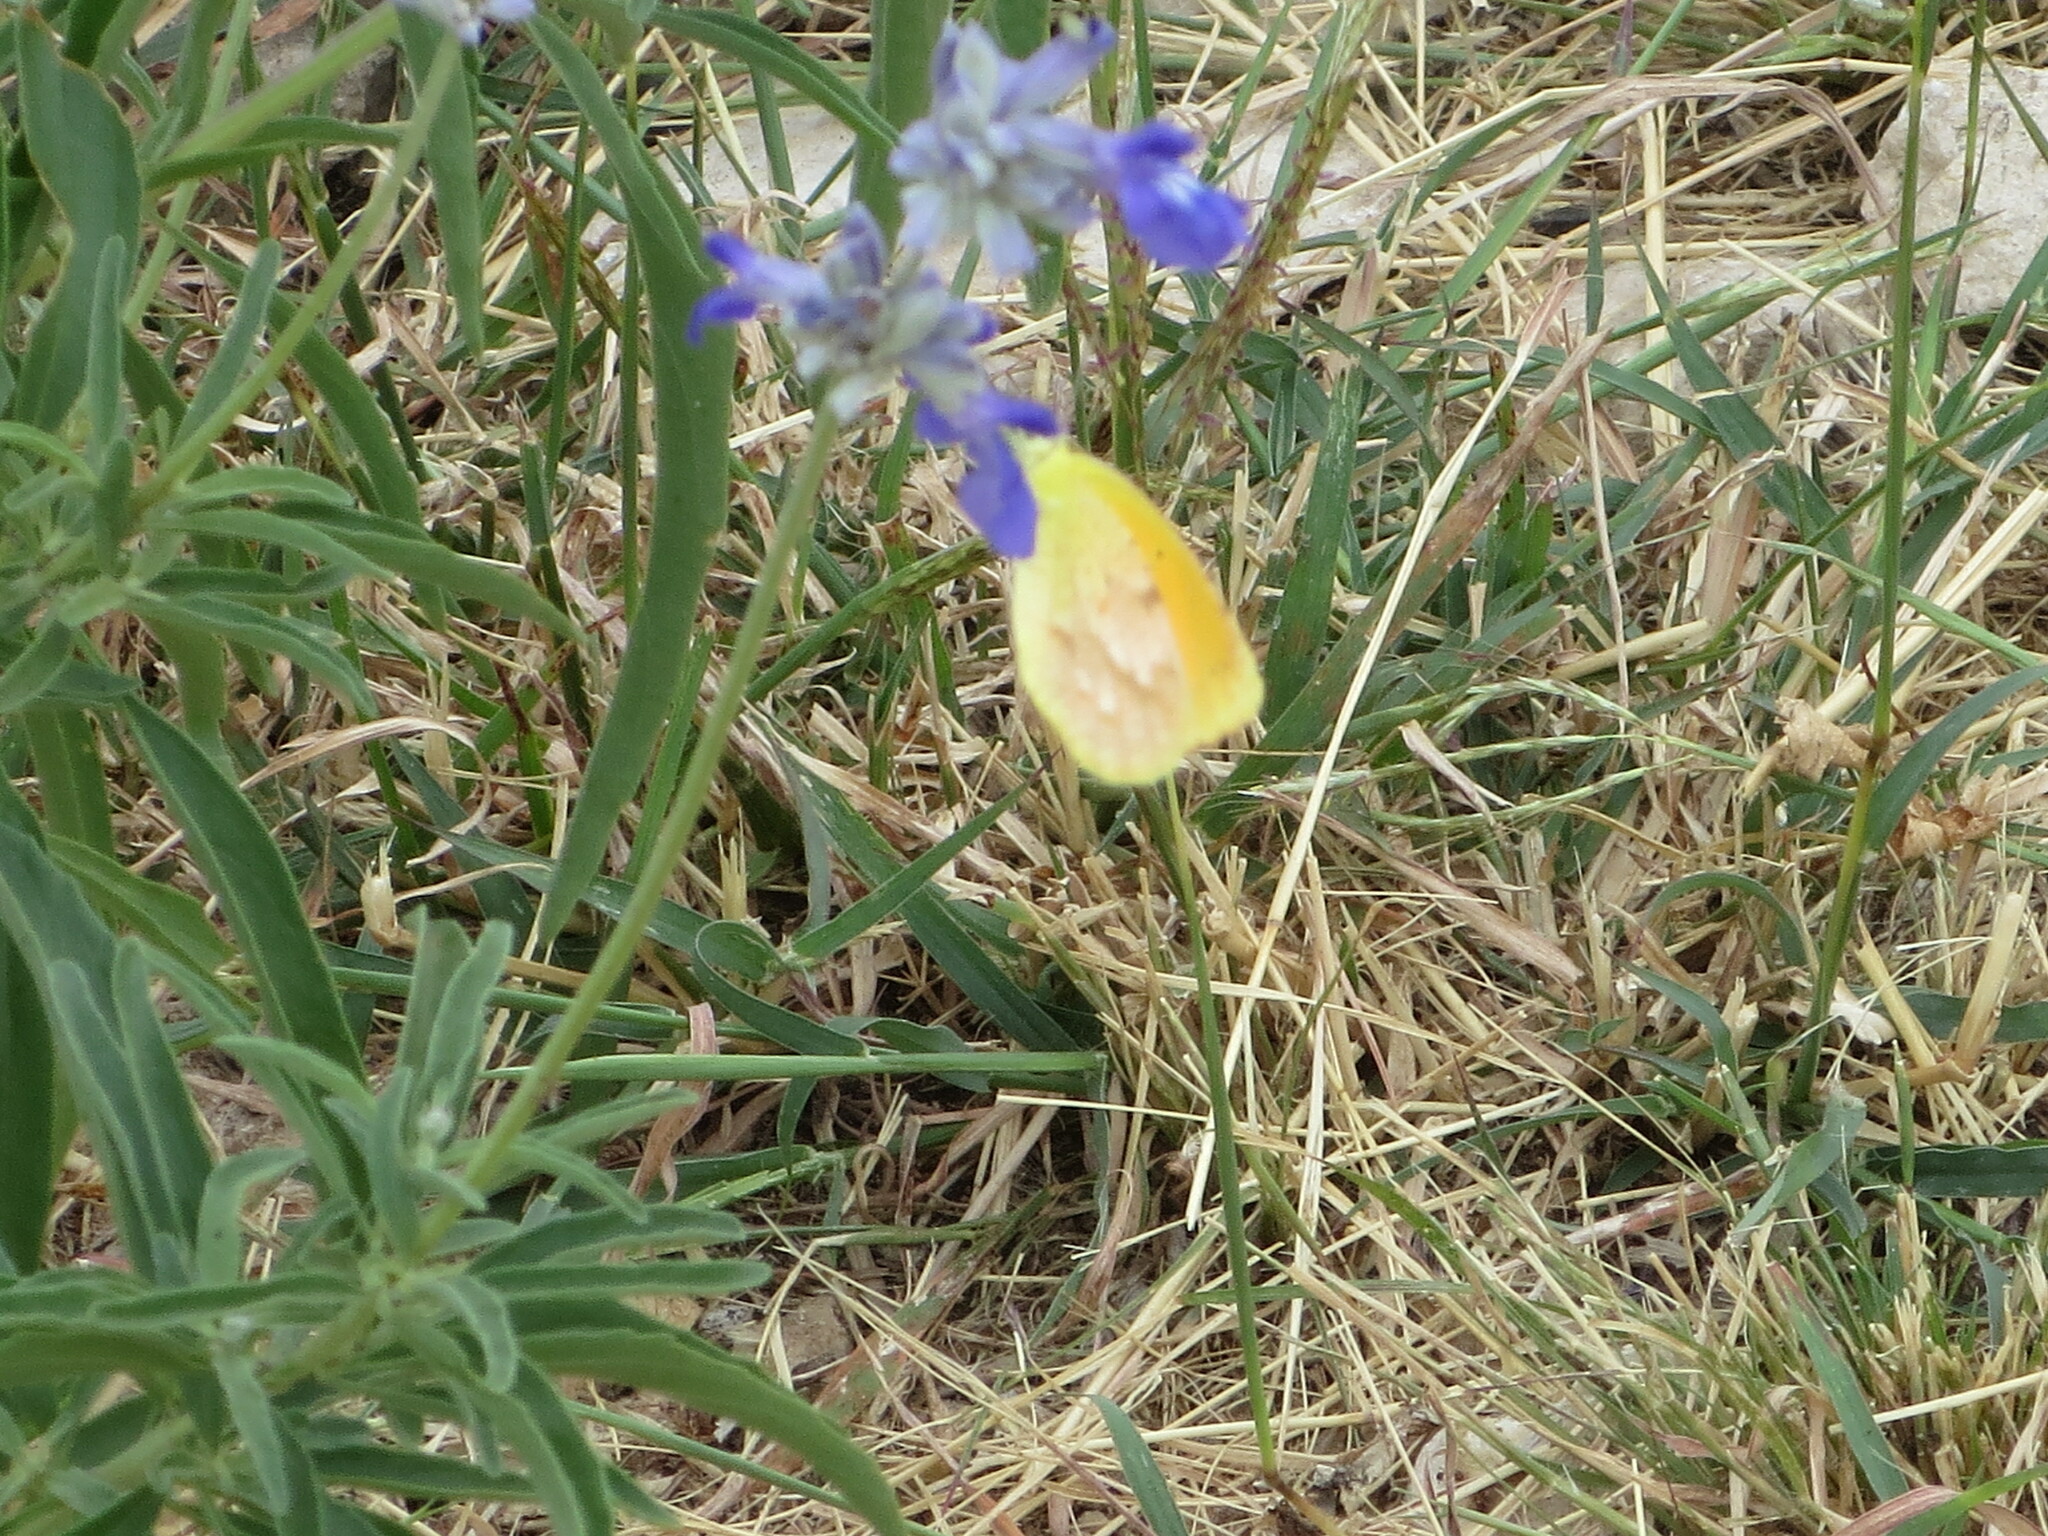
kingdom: Animalia
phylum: Arthropoda
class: Insecta
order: Lepidoptera
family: Pieridae
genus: Abaeis
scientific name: Abaeis nicippe
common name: Sleepy orange
